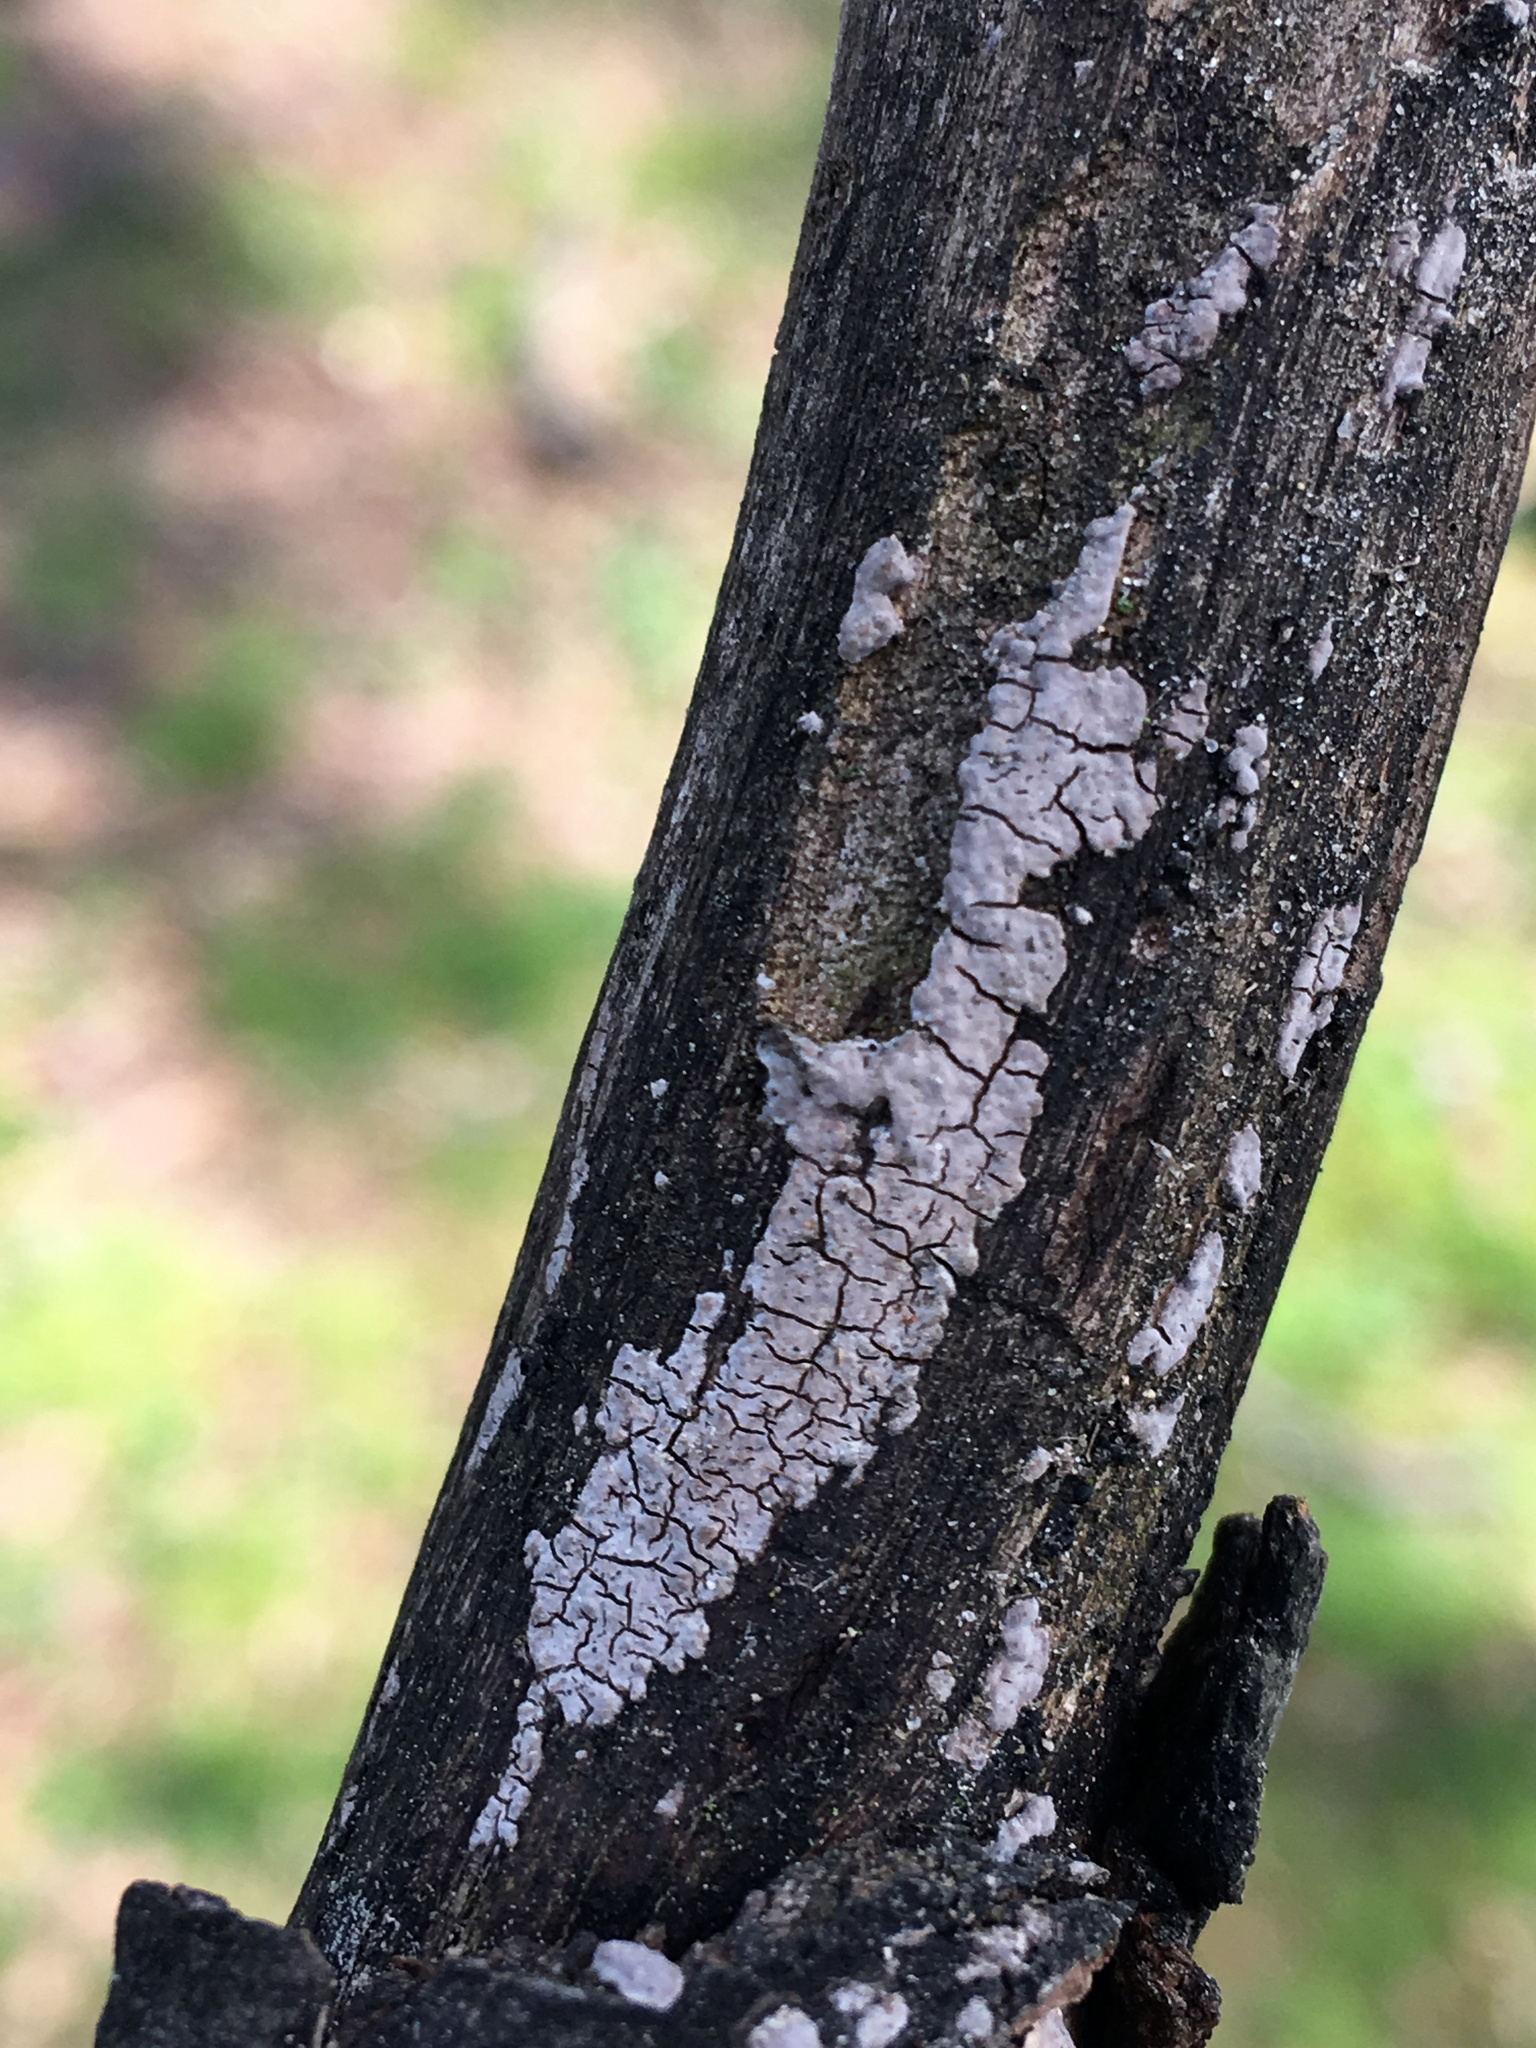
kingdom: Fungi
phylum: Basidiomycota
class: Agaricomycetes
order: Russulales
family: Peniophoraceae
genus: Peniophora
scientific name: Peniophora cinerea
